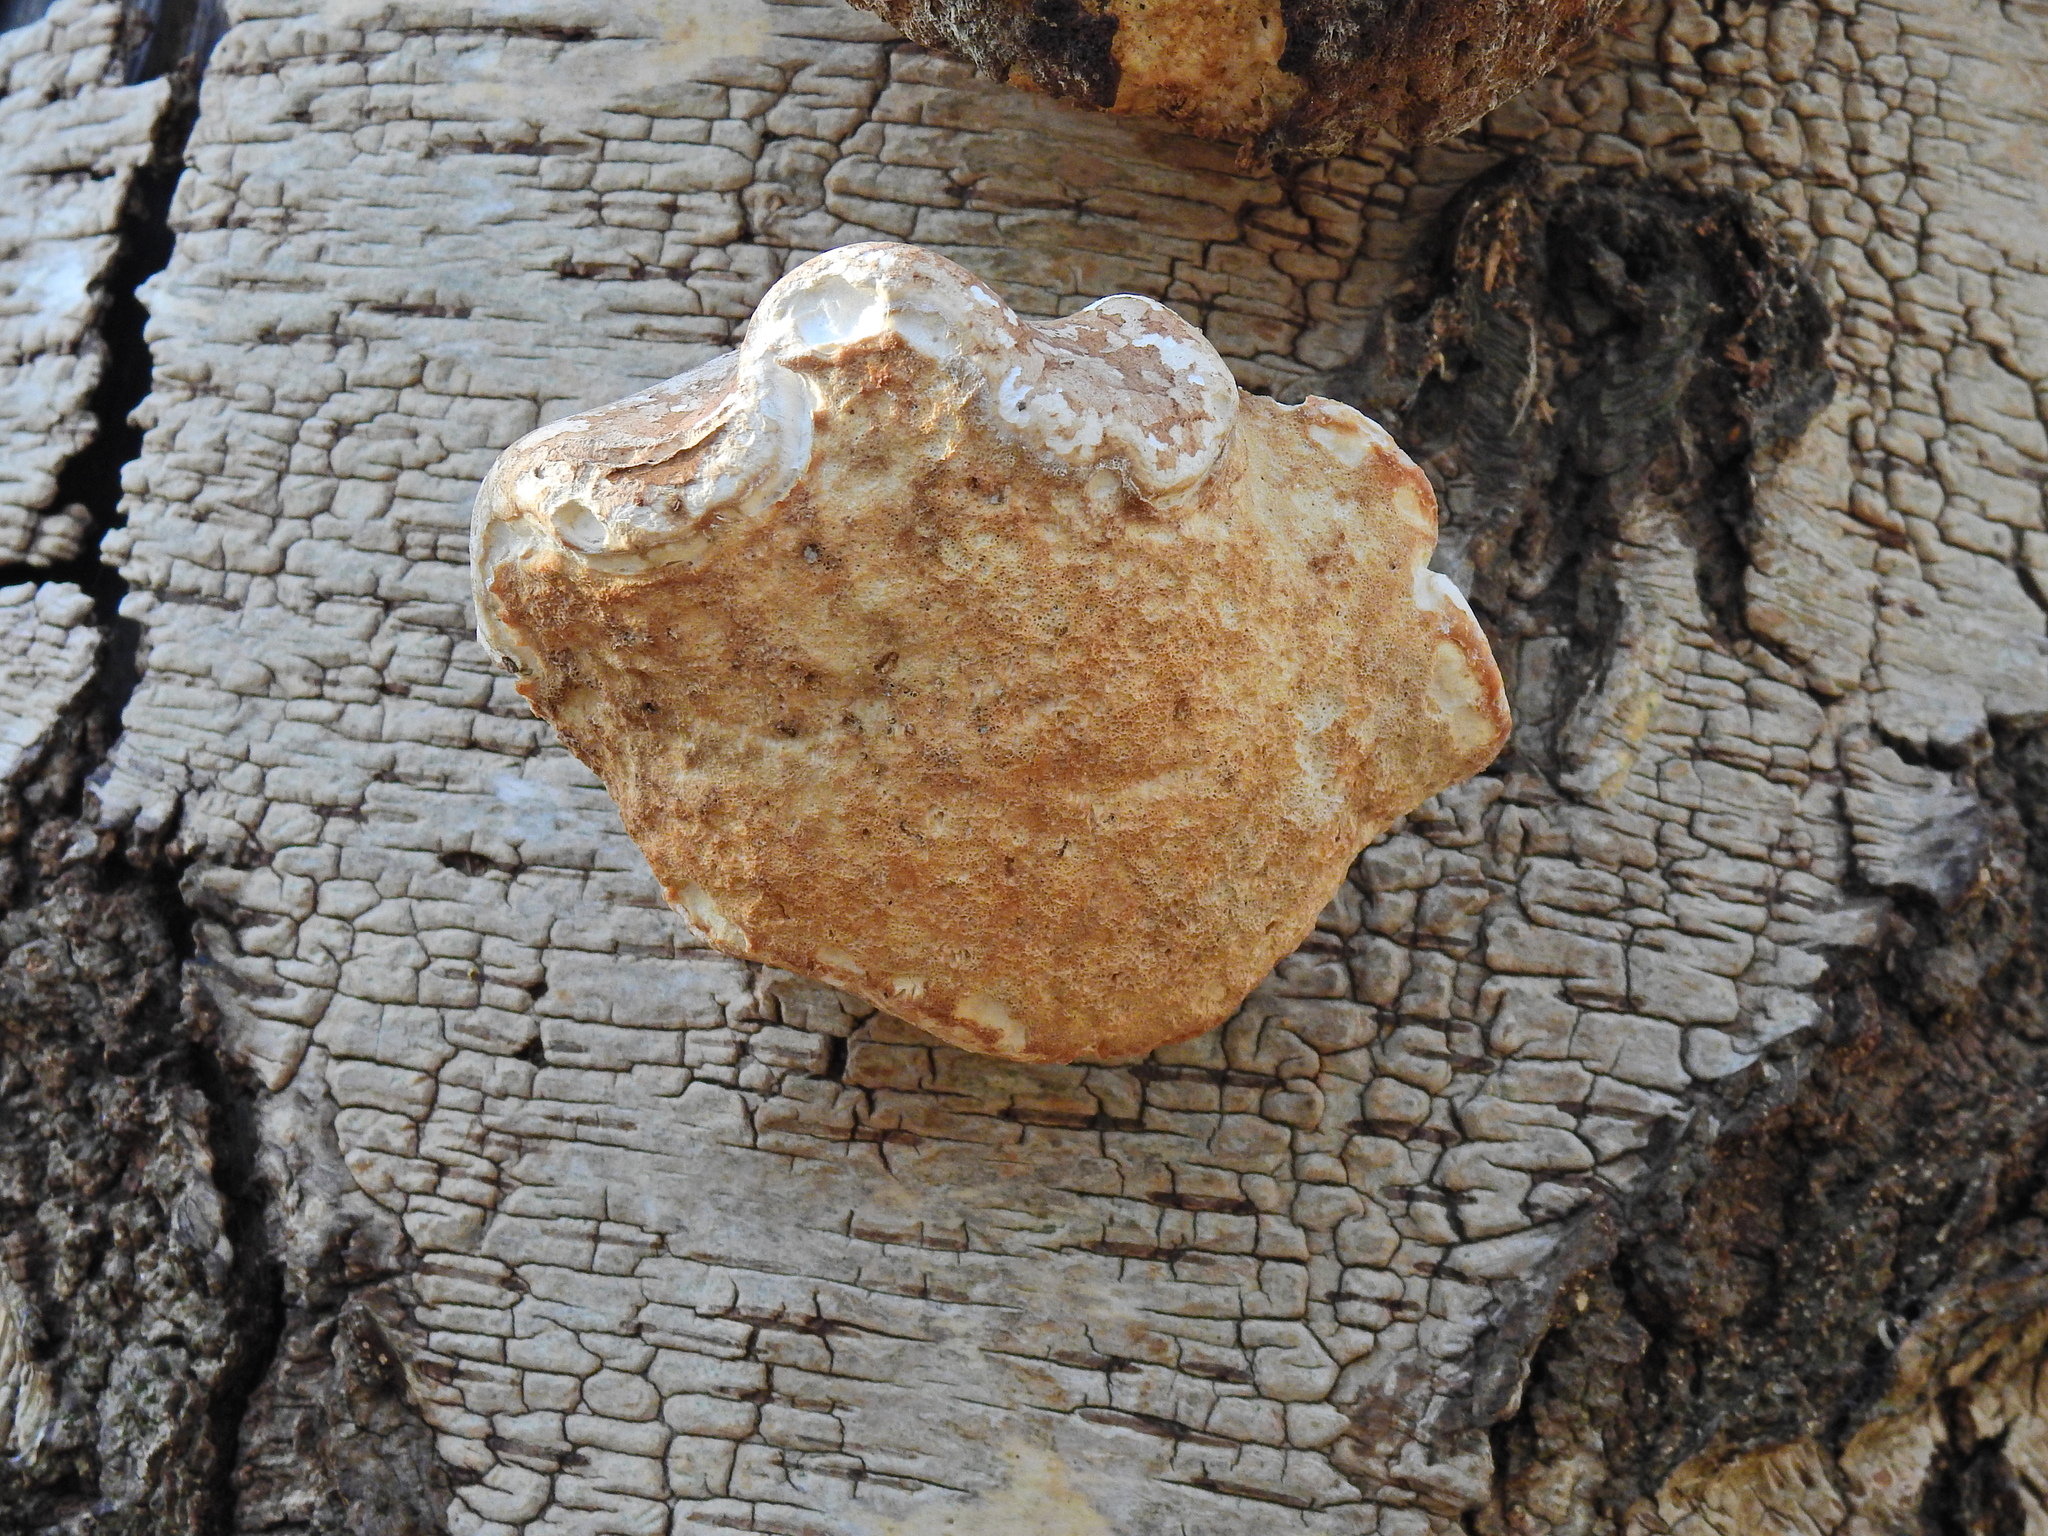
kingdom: Fungi
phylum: Basidiomycota
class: Agaricomycetes
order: Polyporales
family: Fomitopsidaceae
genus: Fomitopsis
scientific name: Fomitopsis betulina
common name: Birch polypore
